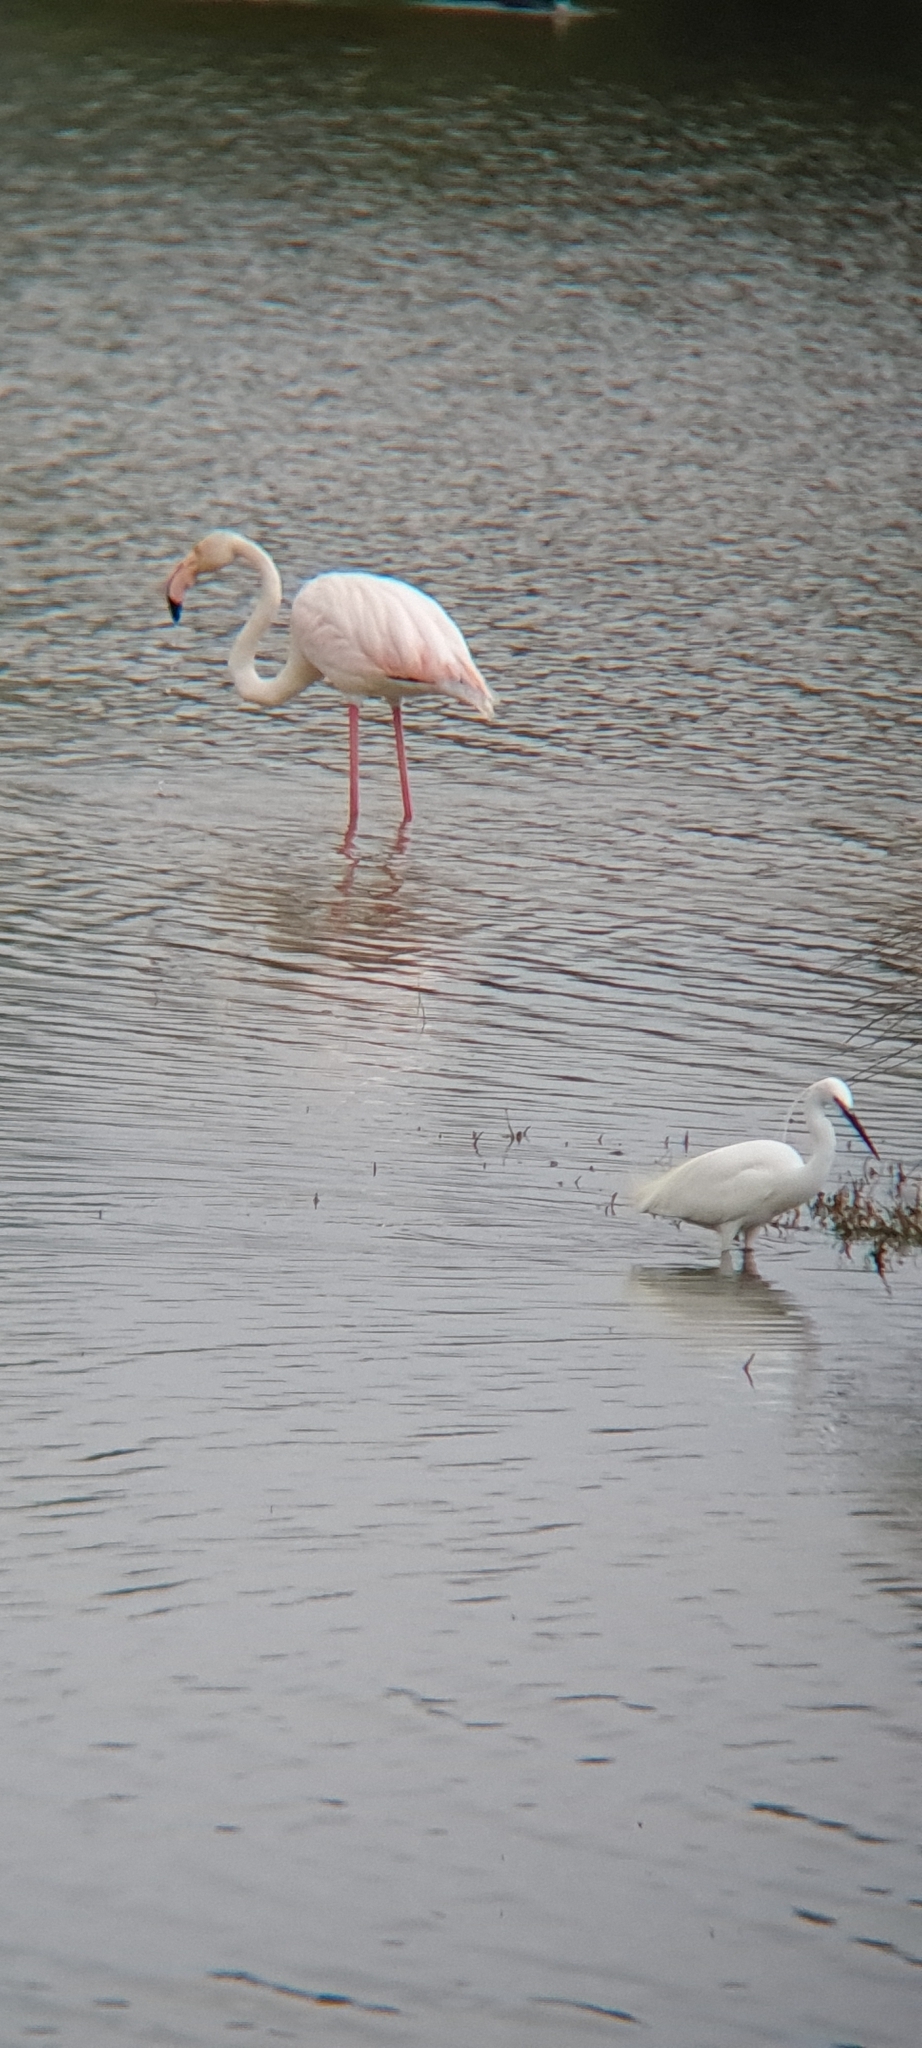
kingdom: Animalia
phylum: Chordata
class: Aves
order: Phoenicopteriformes
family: Phoenicopteridae
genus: Phoenicopterus
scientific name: Phoenicopterus roseus
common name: Greater flamingo
